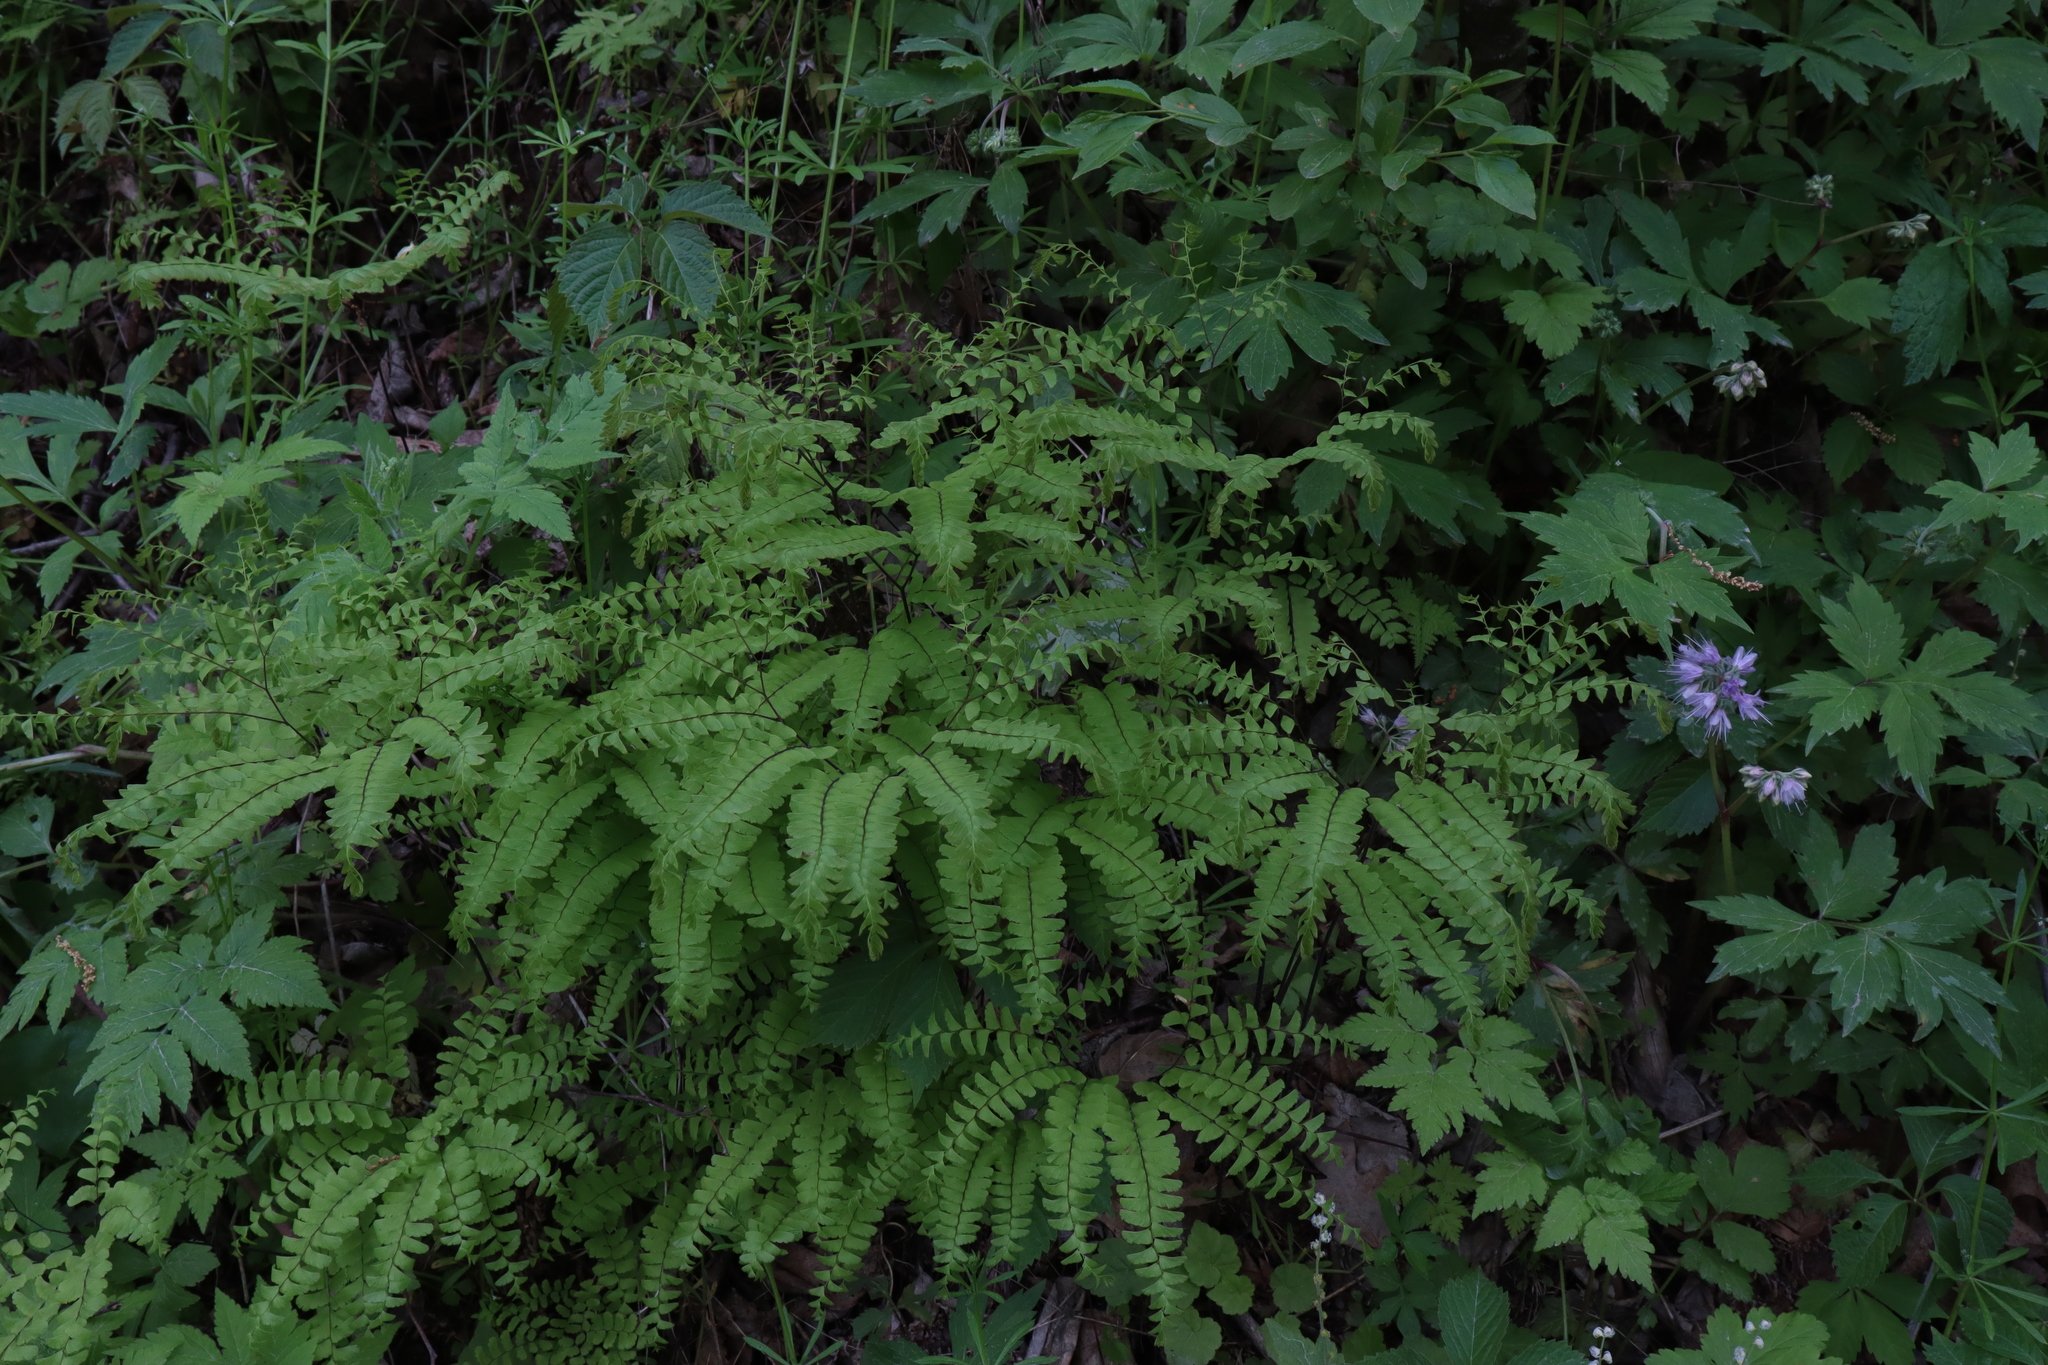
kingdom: Plantae
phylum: Tracheophyta
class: Polypodiopsida
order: Polypodiales
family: Pteridaceae
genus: Adiantum
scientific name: Adiantum pedatum
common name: Five-finger fern
